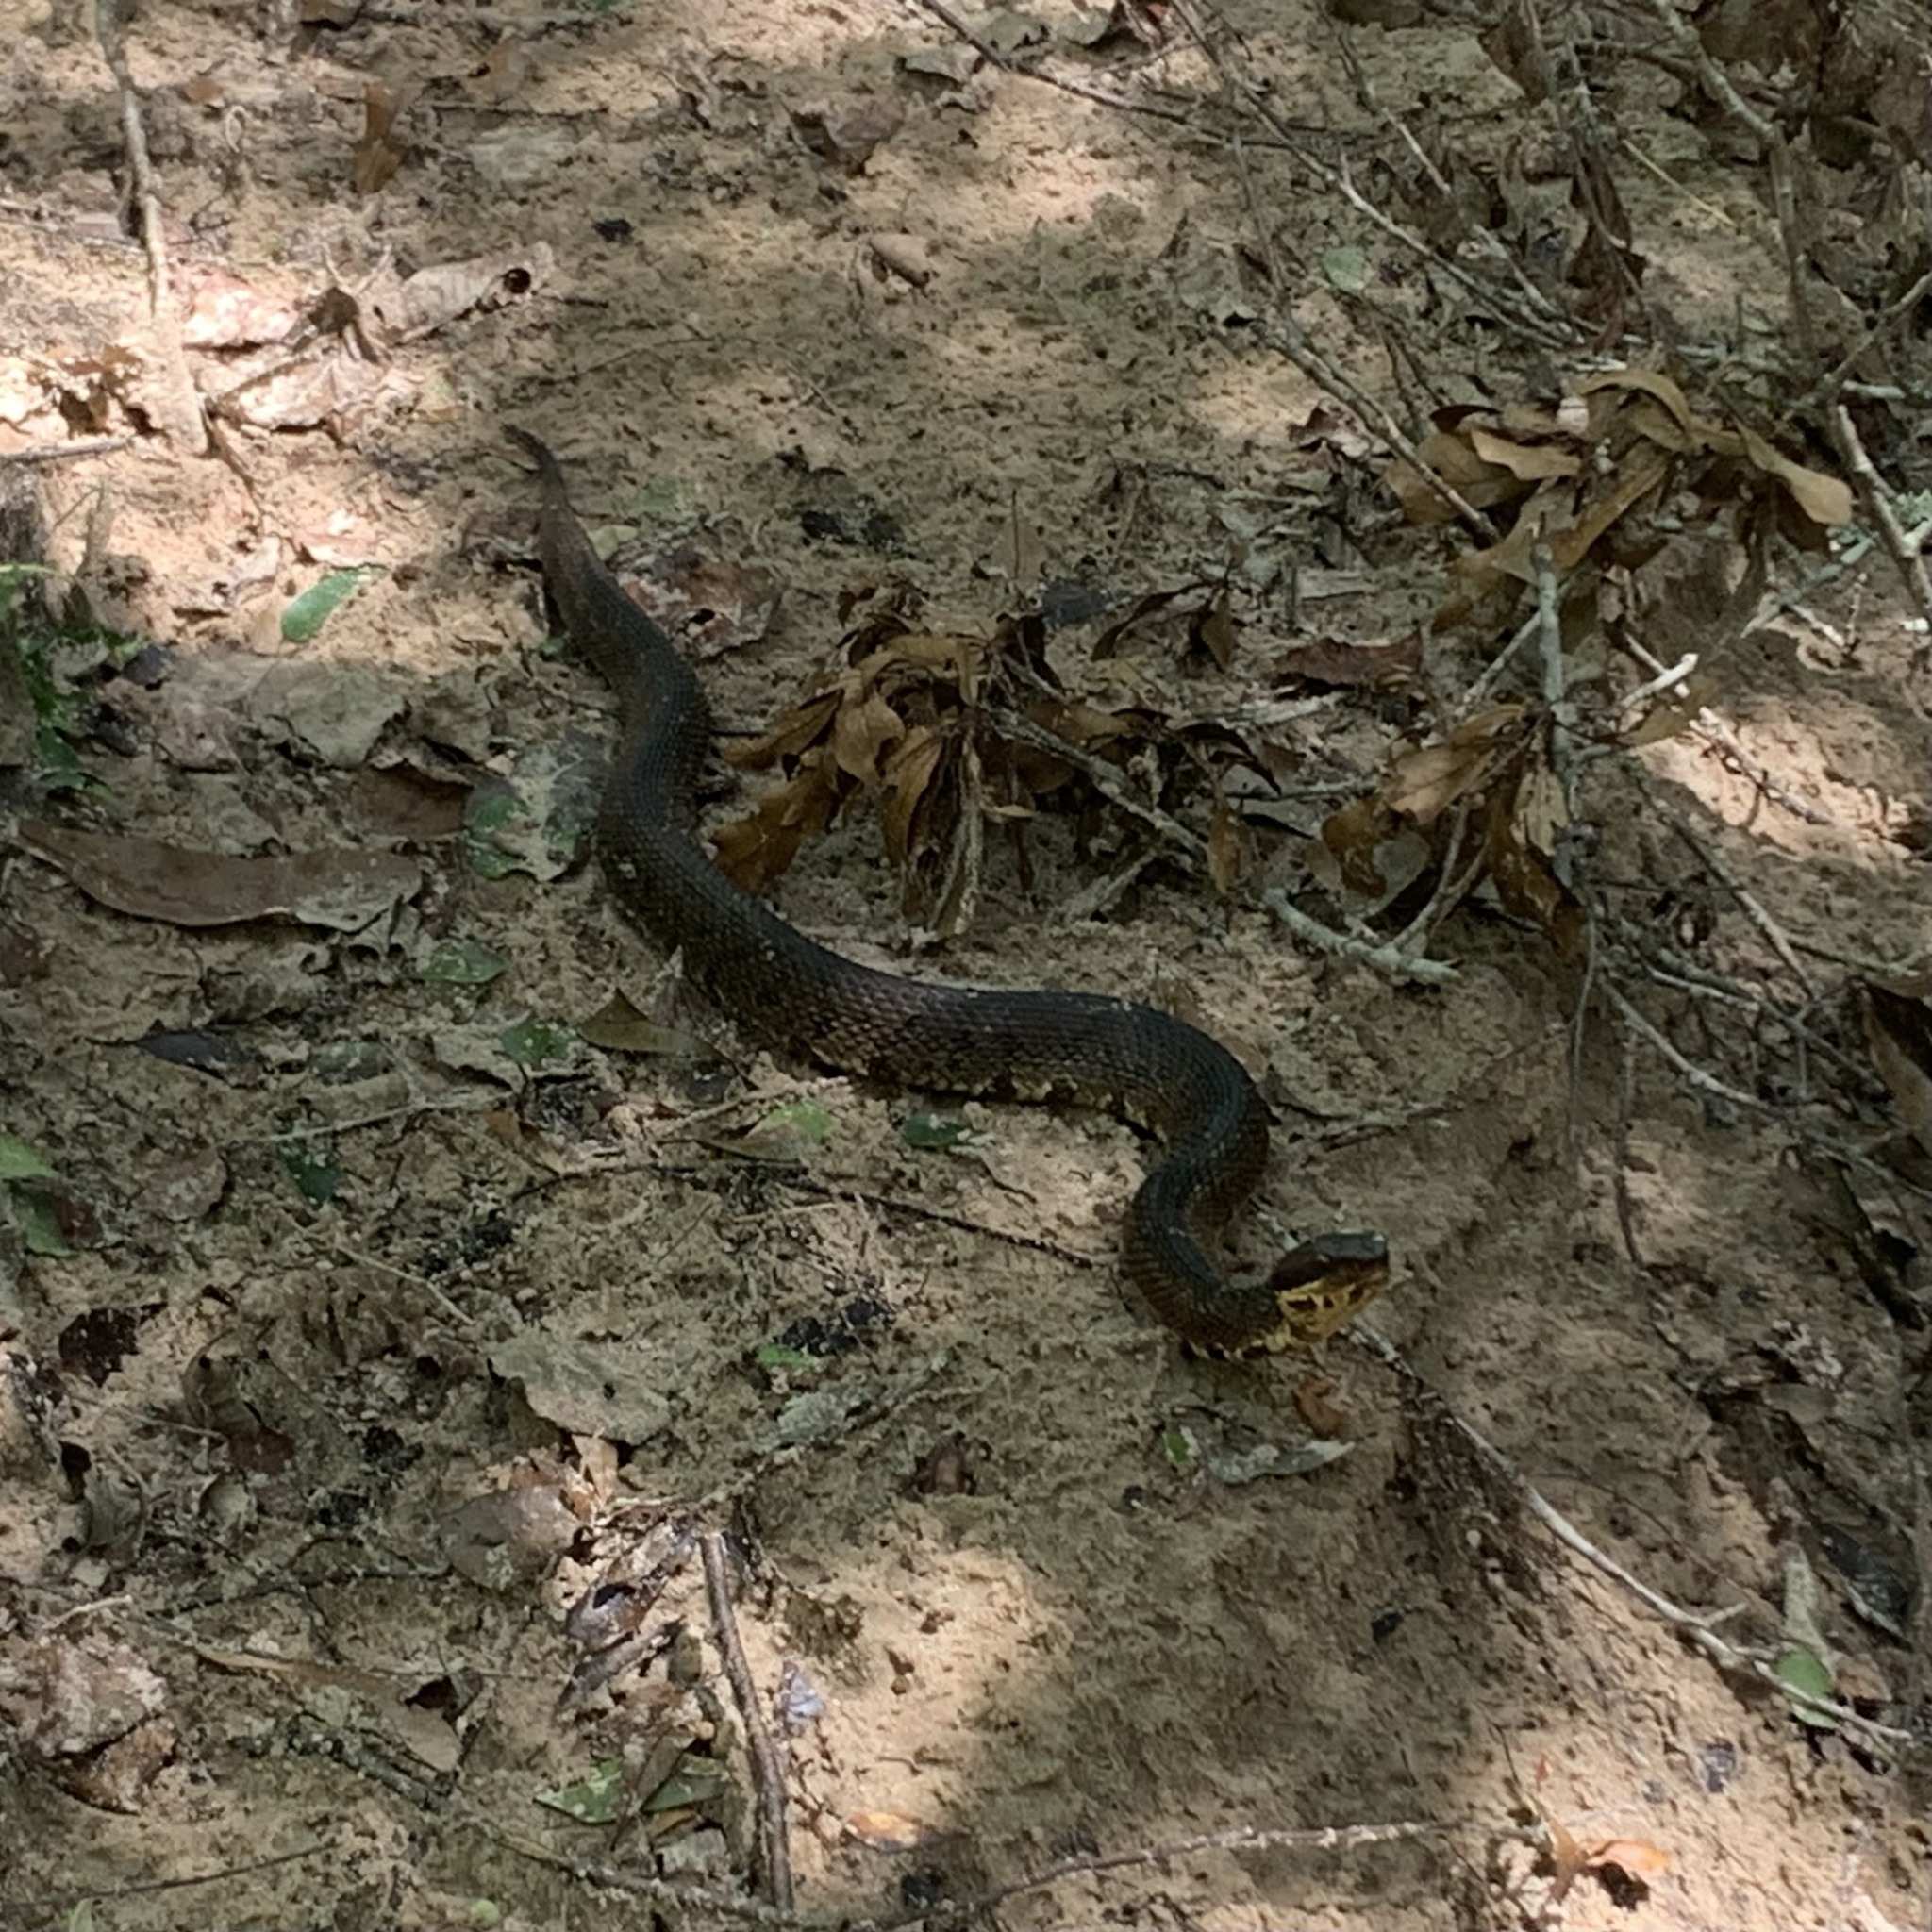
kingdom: Animalia
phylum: Chordata
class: Squamata
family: Viperidae
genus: Agkistrodon
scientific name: Agkistrodon piscivorus
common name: Cottonmouth
